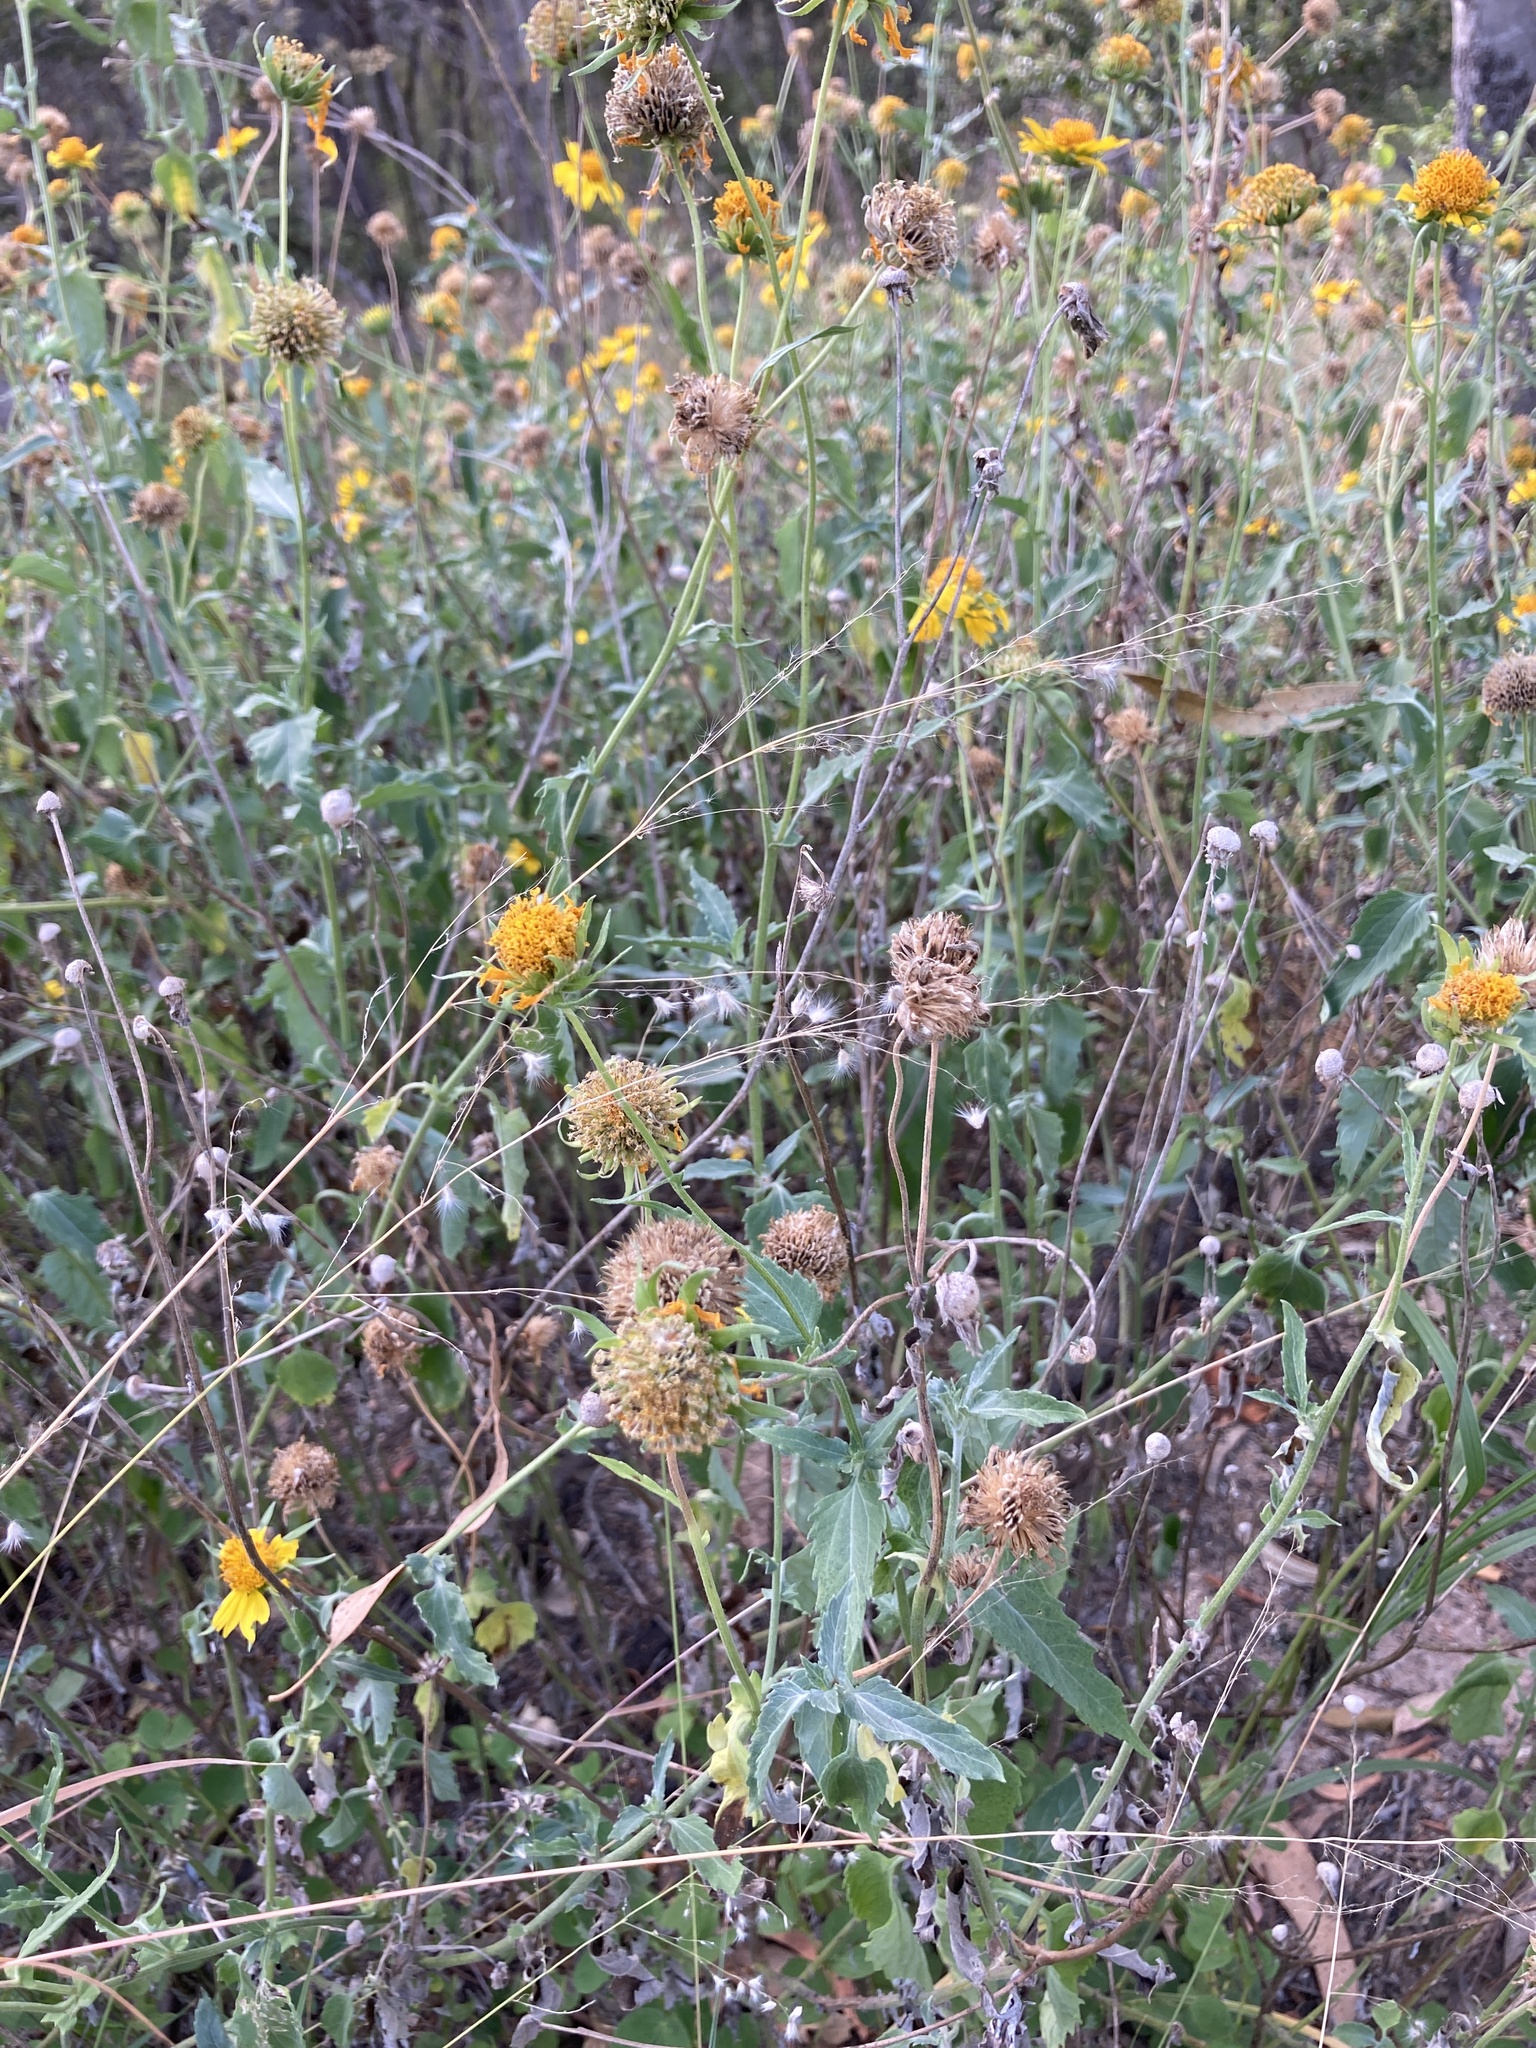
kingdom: Plantae
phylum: Tracheophyta
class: Magnoliopsida
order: Asterales
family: Asteraceae
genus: Verbesina
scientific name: Verbesina encelioides
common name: Golden crownbeard
